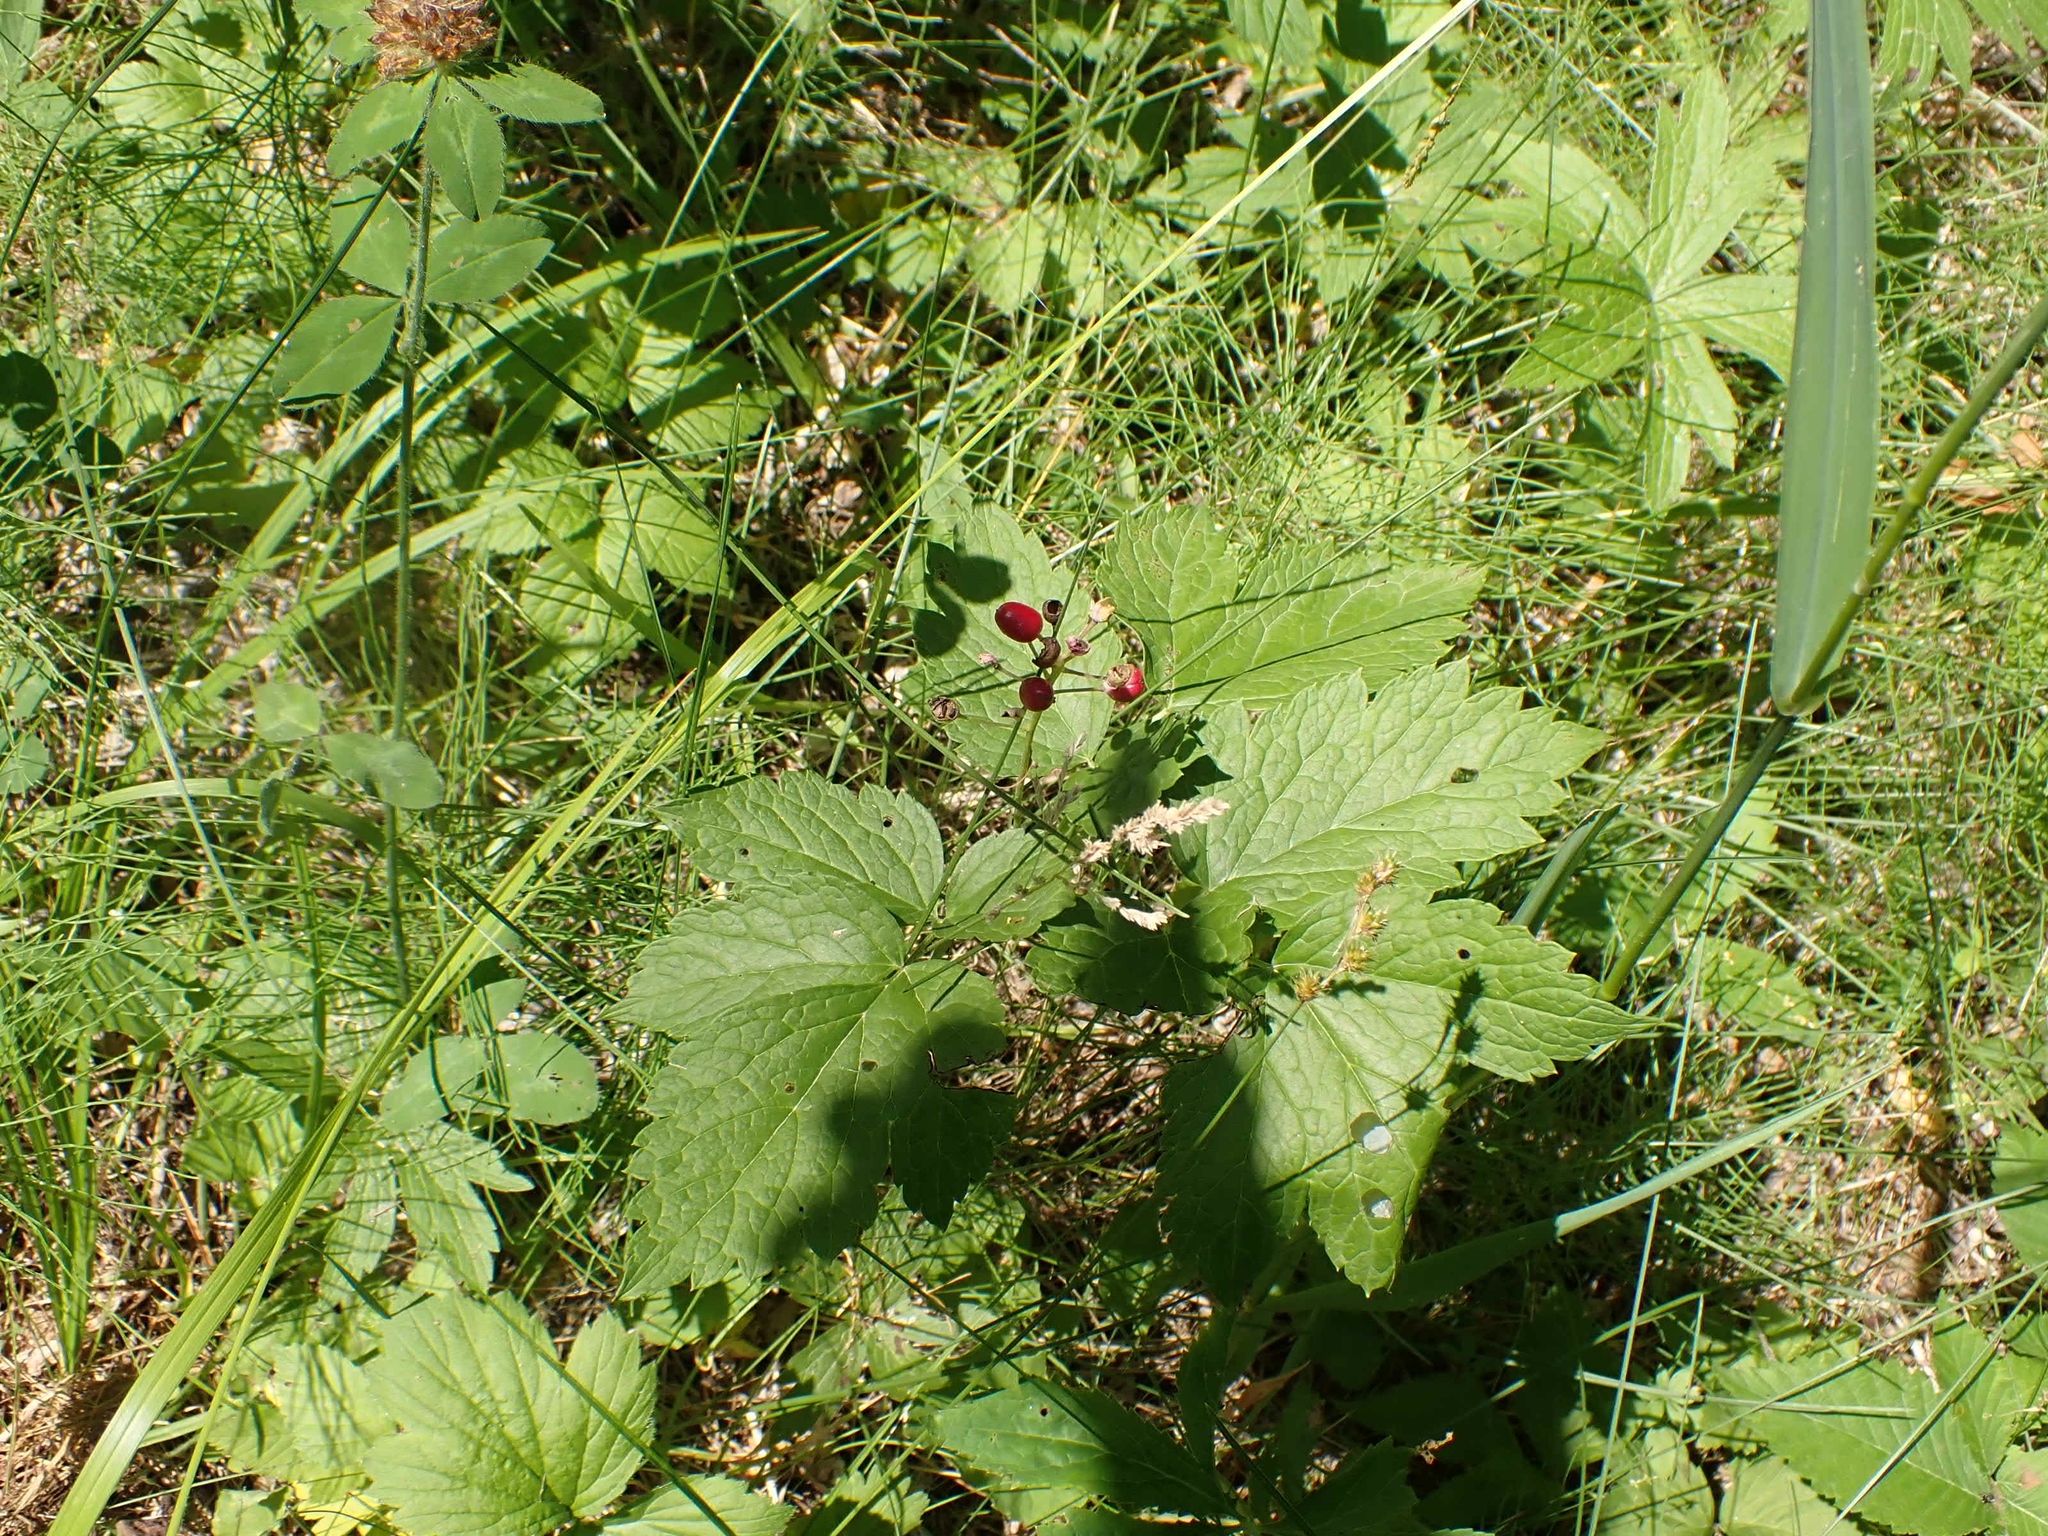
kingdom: Plantae
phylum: Tracheophyta
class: Magnoliopsida
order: Ranunculales
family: Ranunculaceae
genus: Actaea
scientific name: Actaea rubra
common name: Red baneberry
